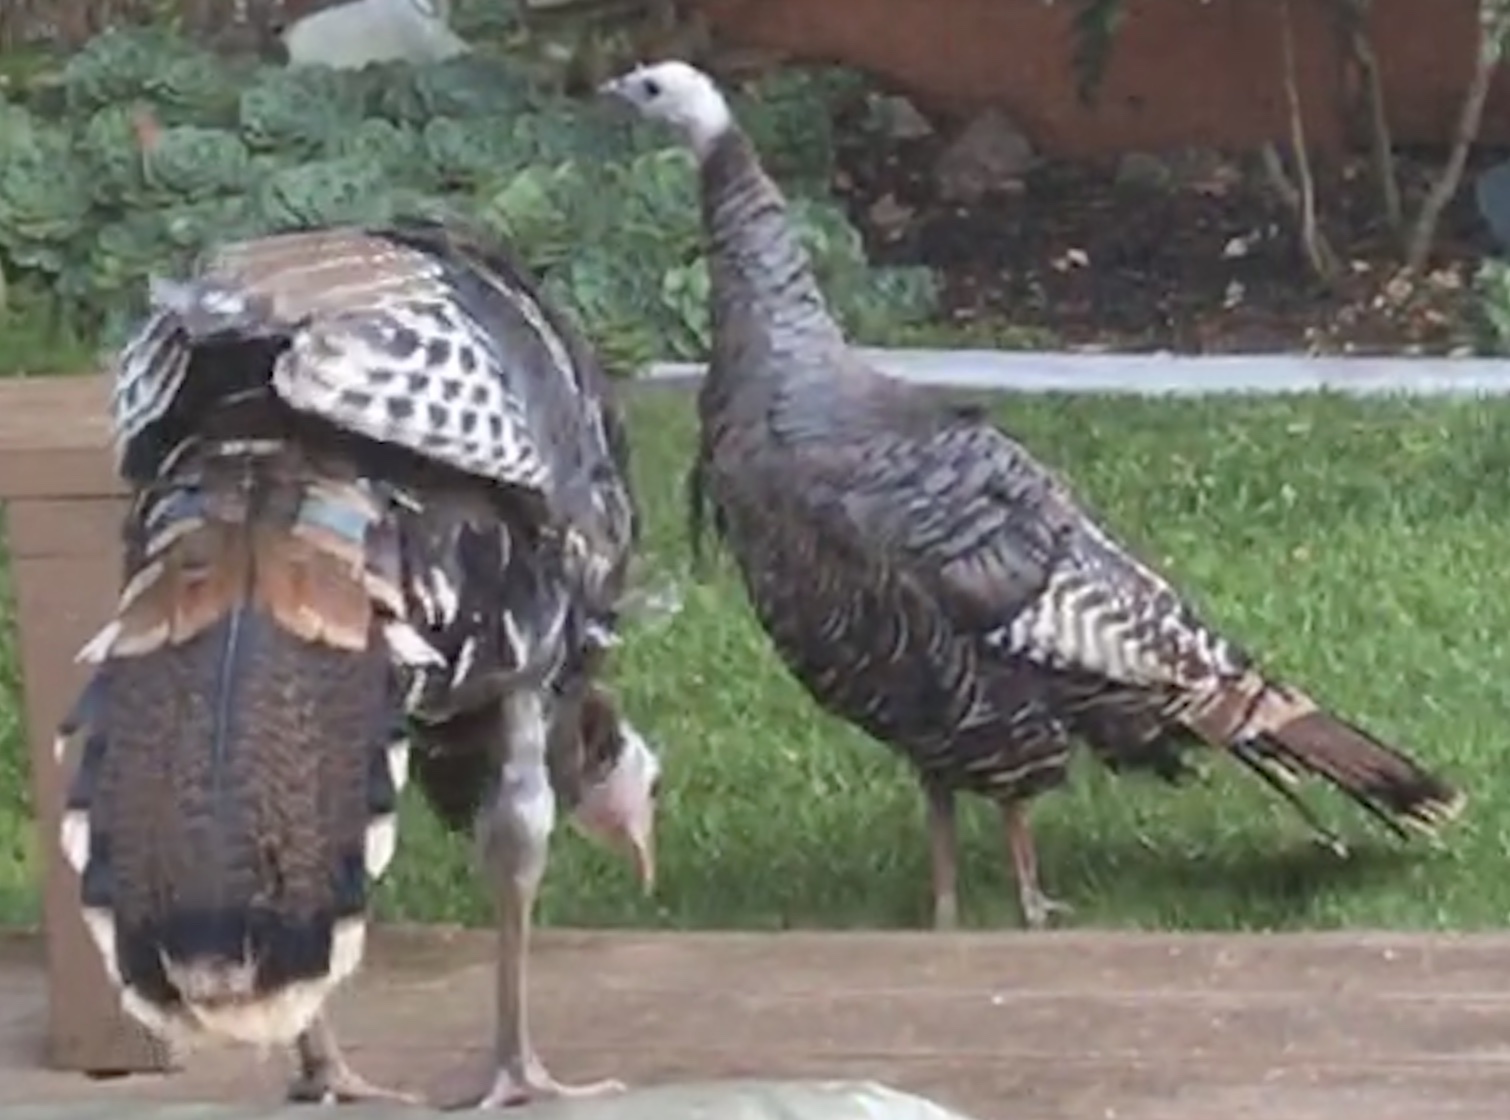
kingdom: Animalia
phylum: Chordata
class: Aves
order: Galliformes
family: Phasianidae
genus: Meleagris
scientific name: Meleagris gallopavo
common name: Wild turkey
